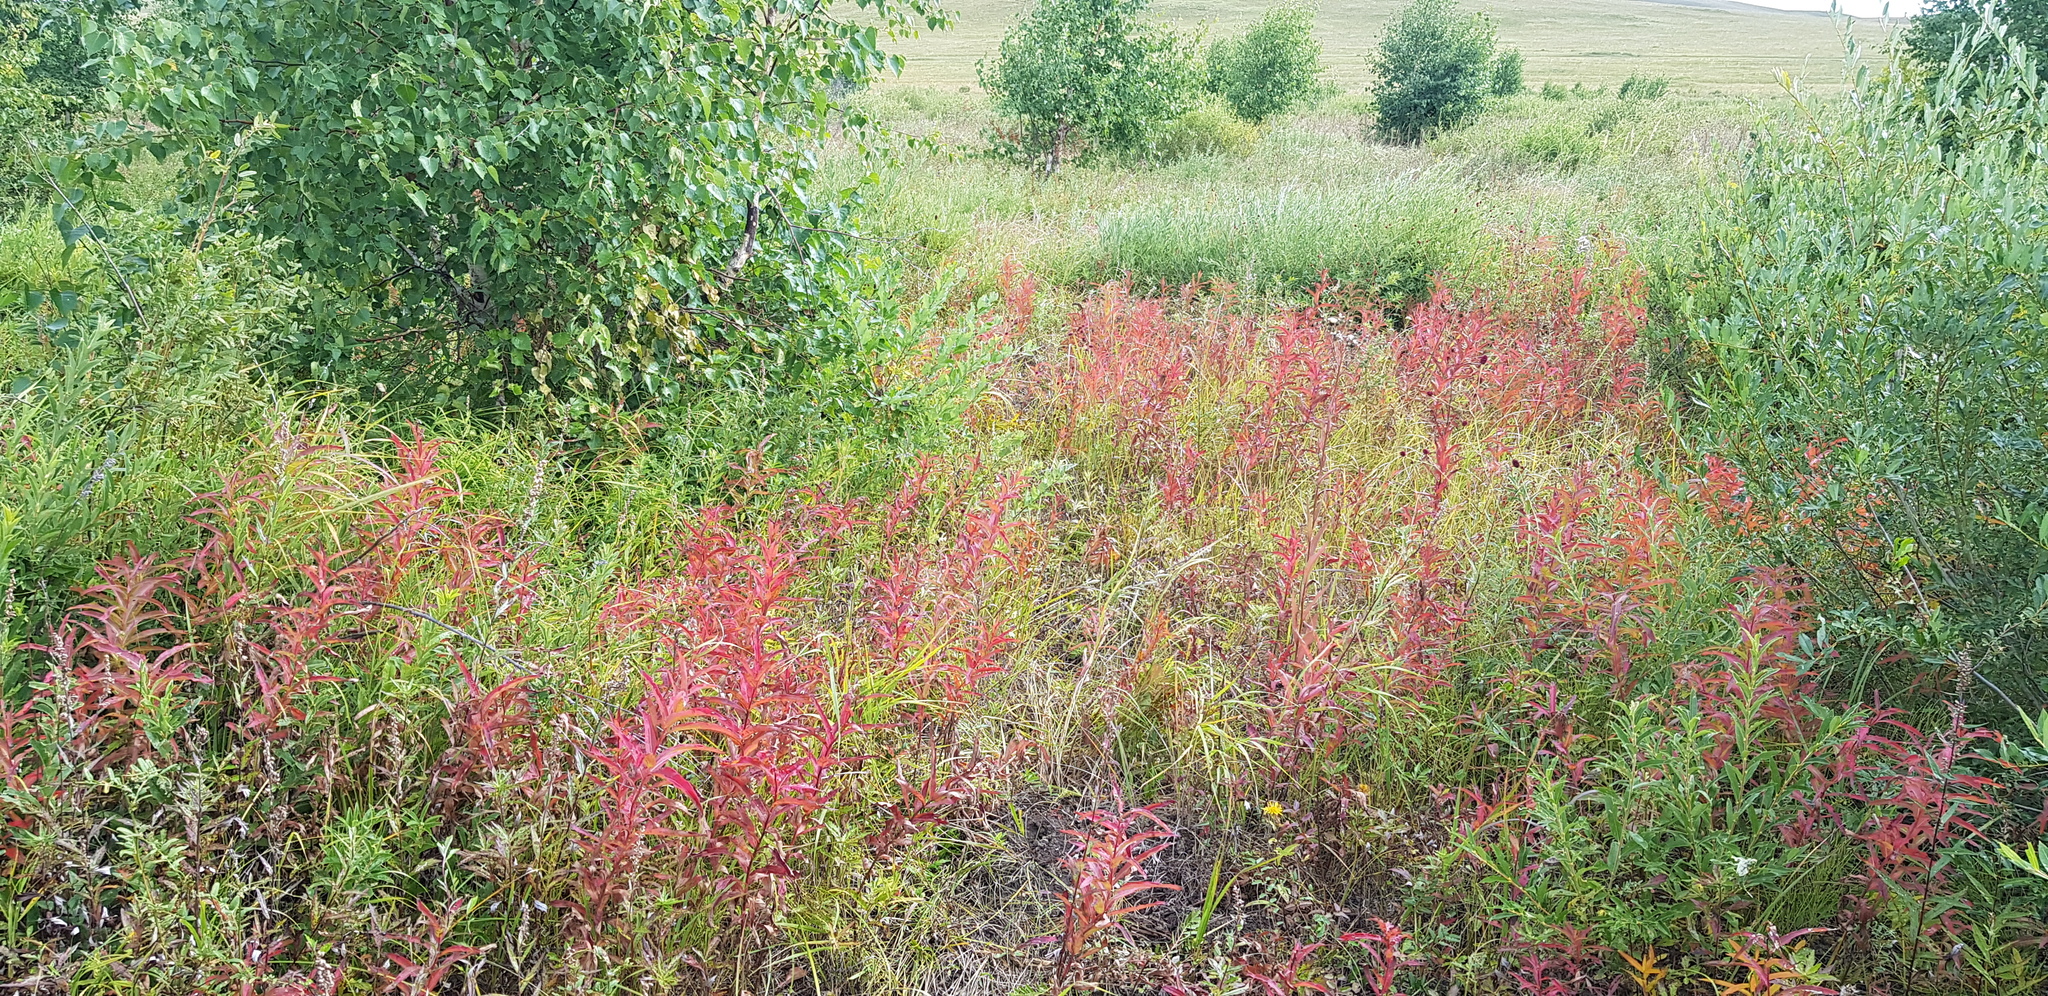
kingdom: Plantae
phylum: Tracheophyta
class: Magnoliopsida
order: Myrtales
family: Onagraceae
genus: Chamaenerion
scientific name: Chamaenerion angustifolium
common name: Fireweed
